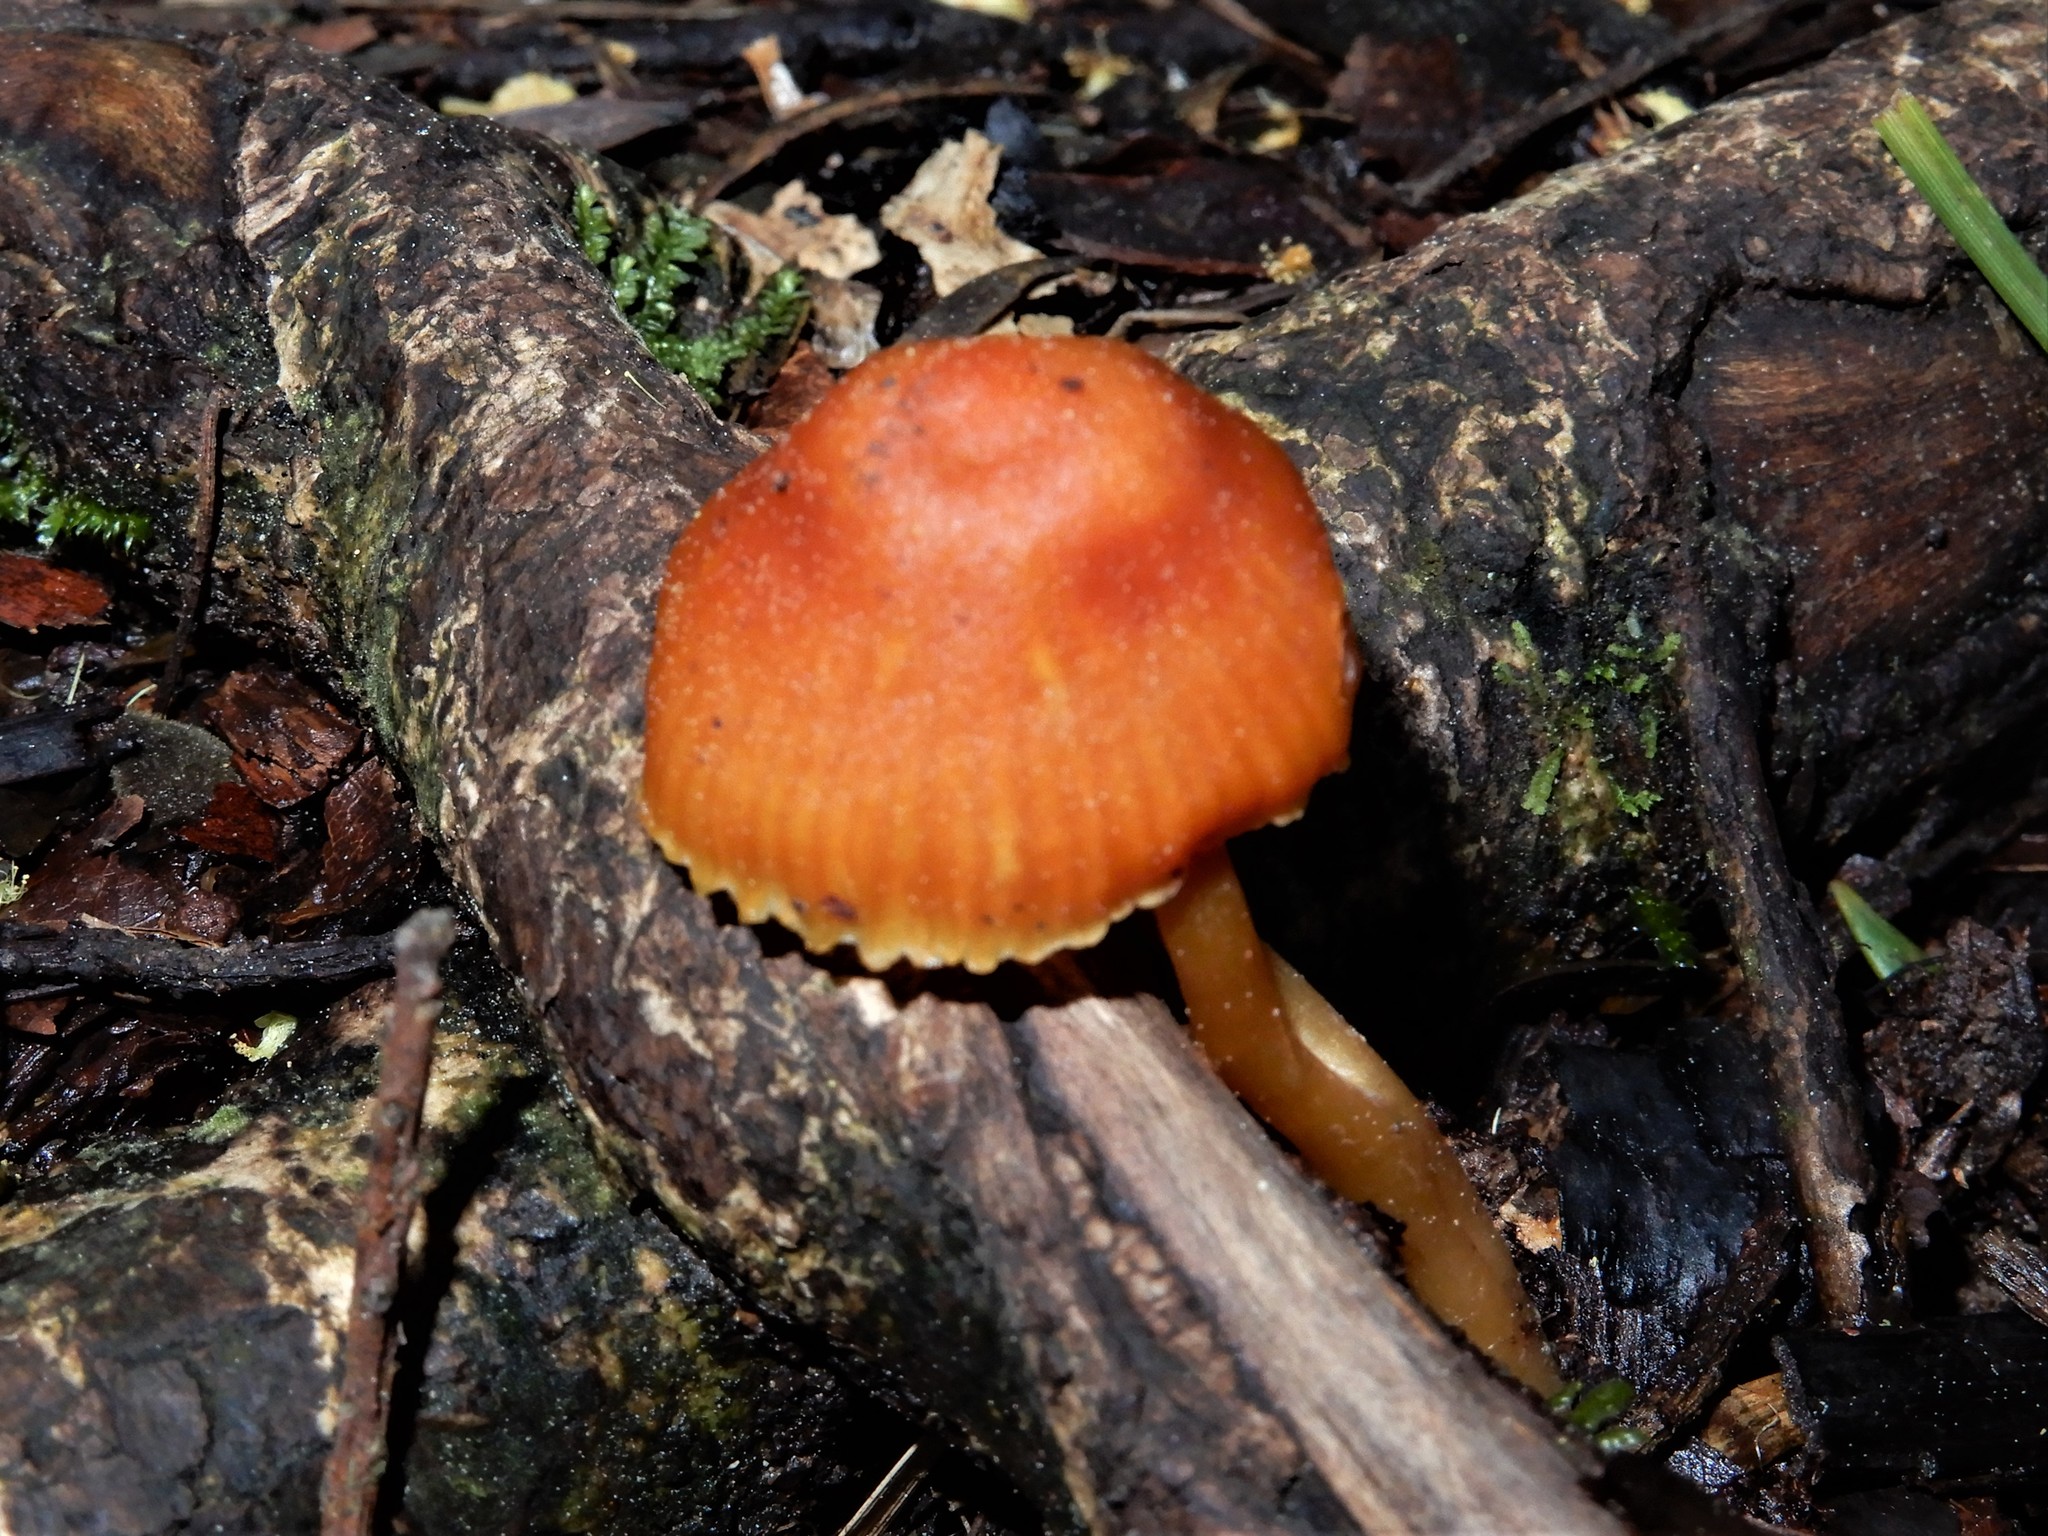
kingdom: Fungi
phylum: Basidiomycota
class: Agaricomycetes
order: Agaricales
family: Hygrophoraceae
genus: Hygrocybe
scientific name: Hygrocybe
